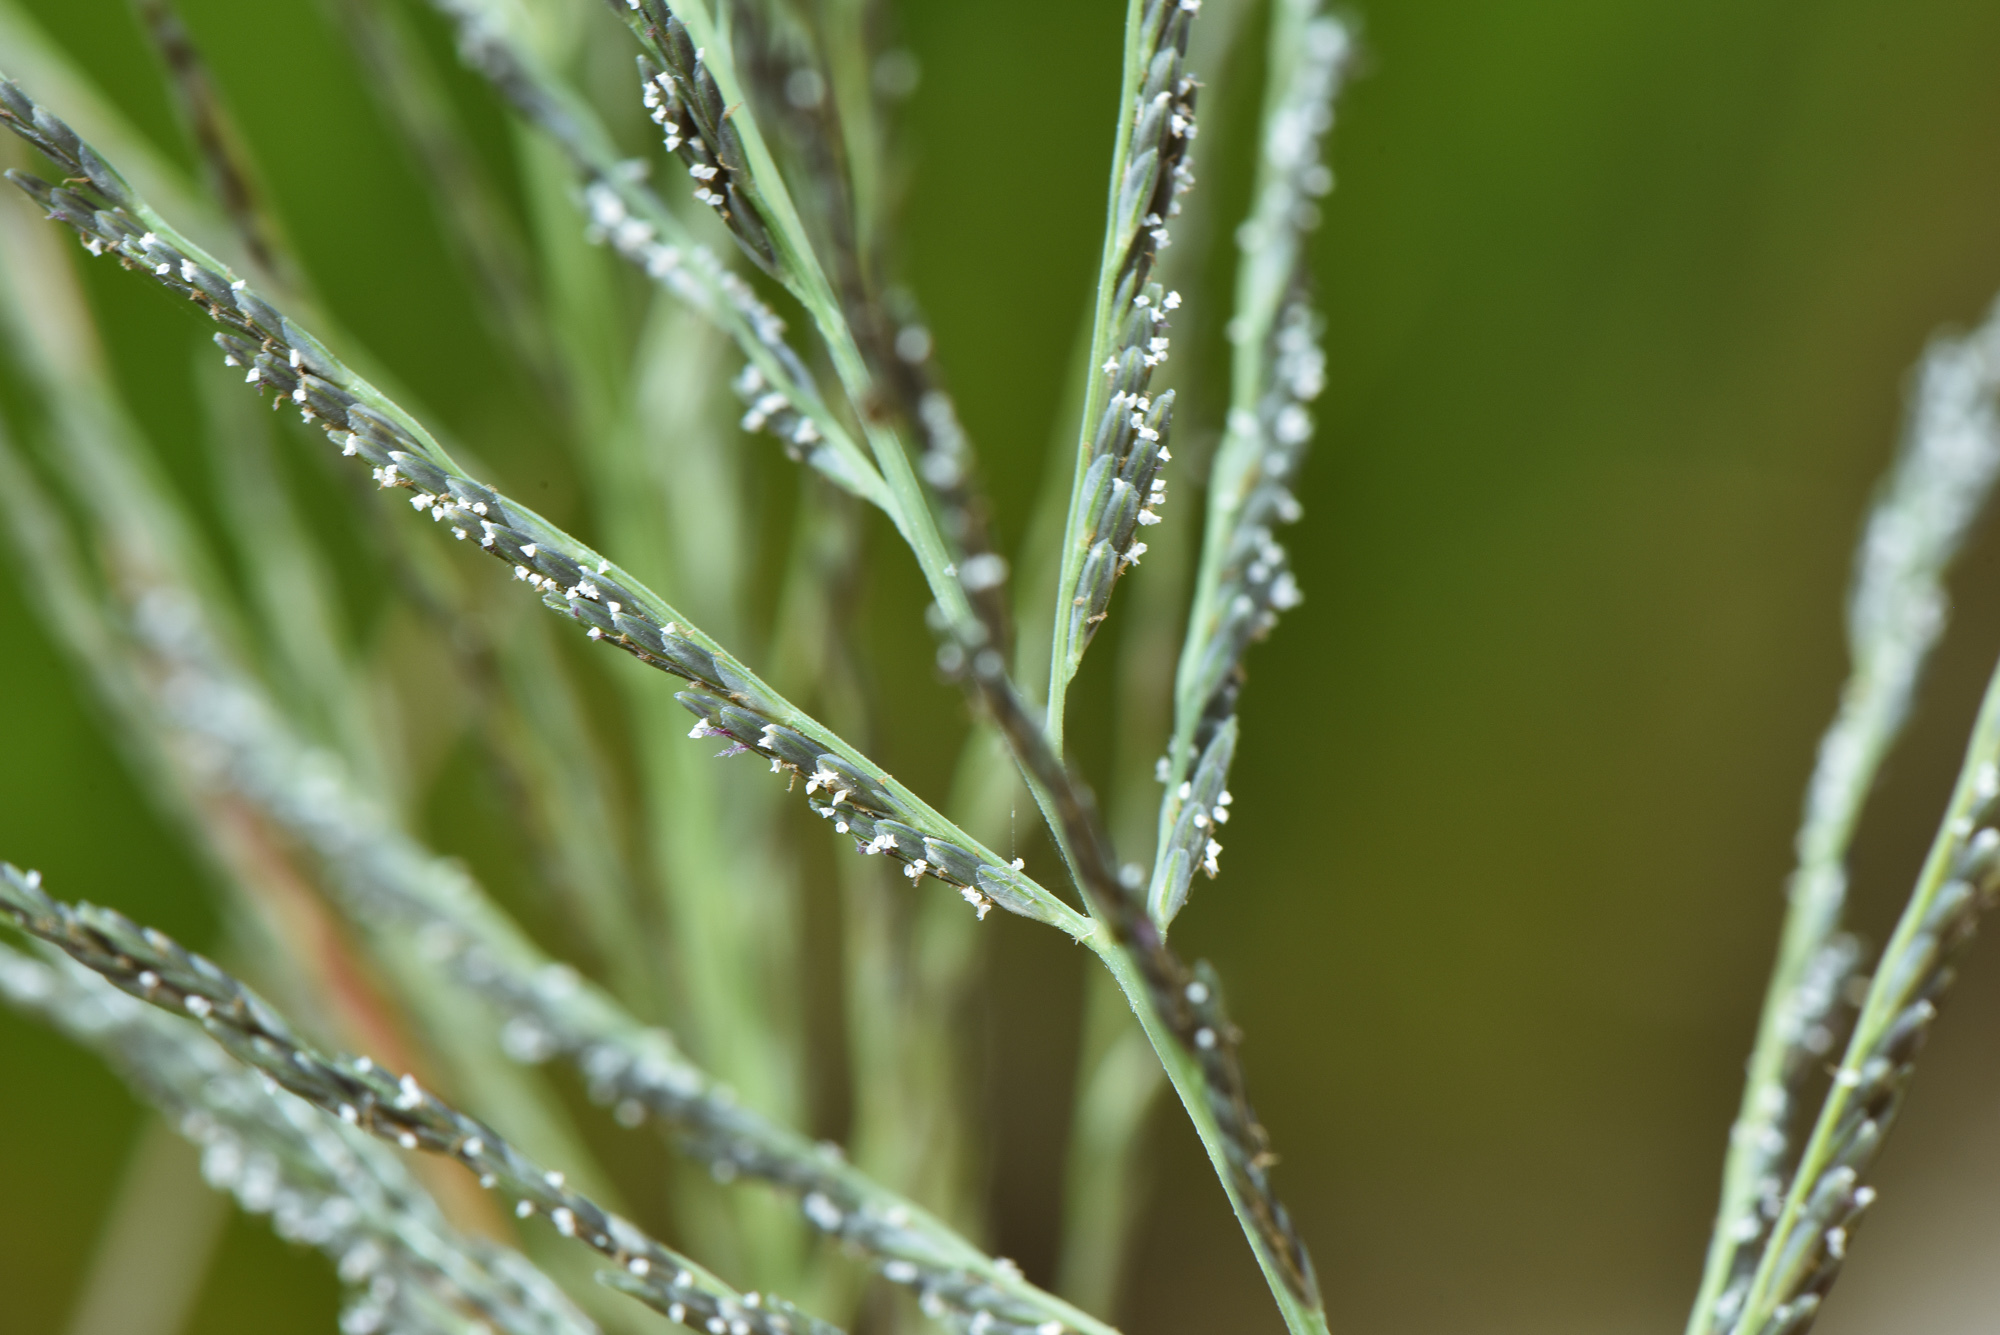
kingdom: Plantae
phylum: Tracheophyta
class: Liliopsida
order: Poales
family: Poaceae
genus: Leptochloa
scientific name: Leptochloa chinensis
